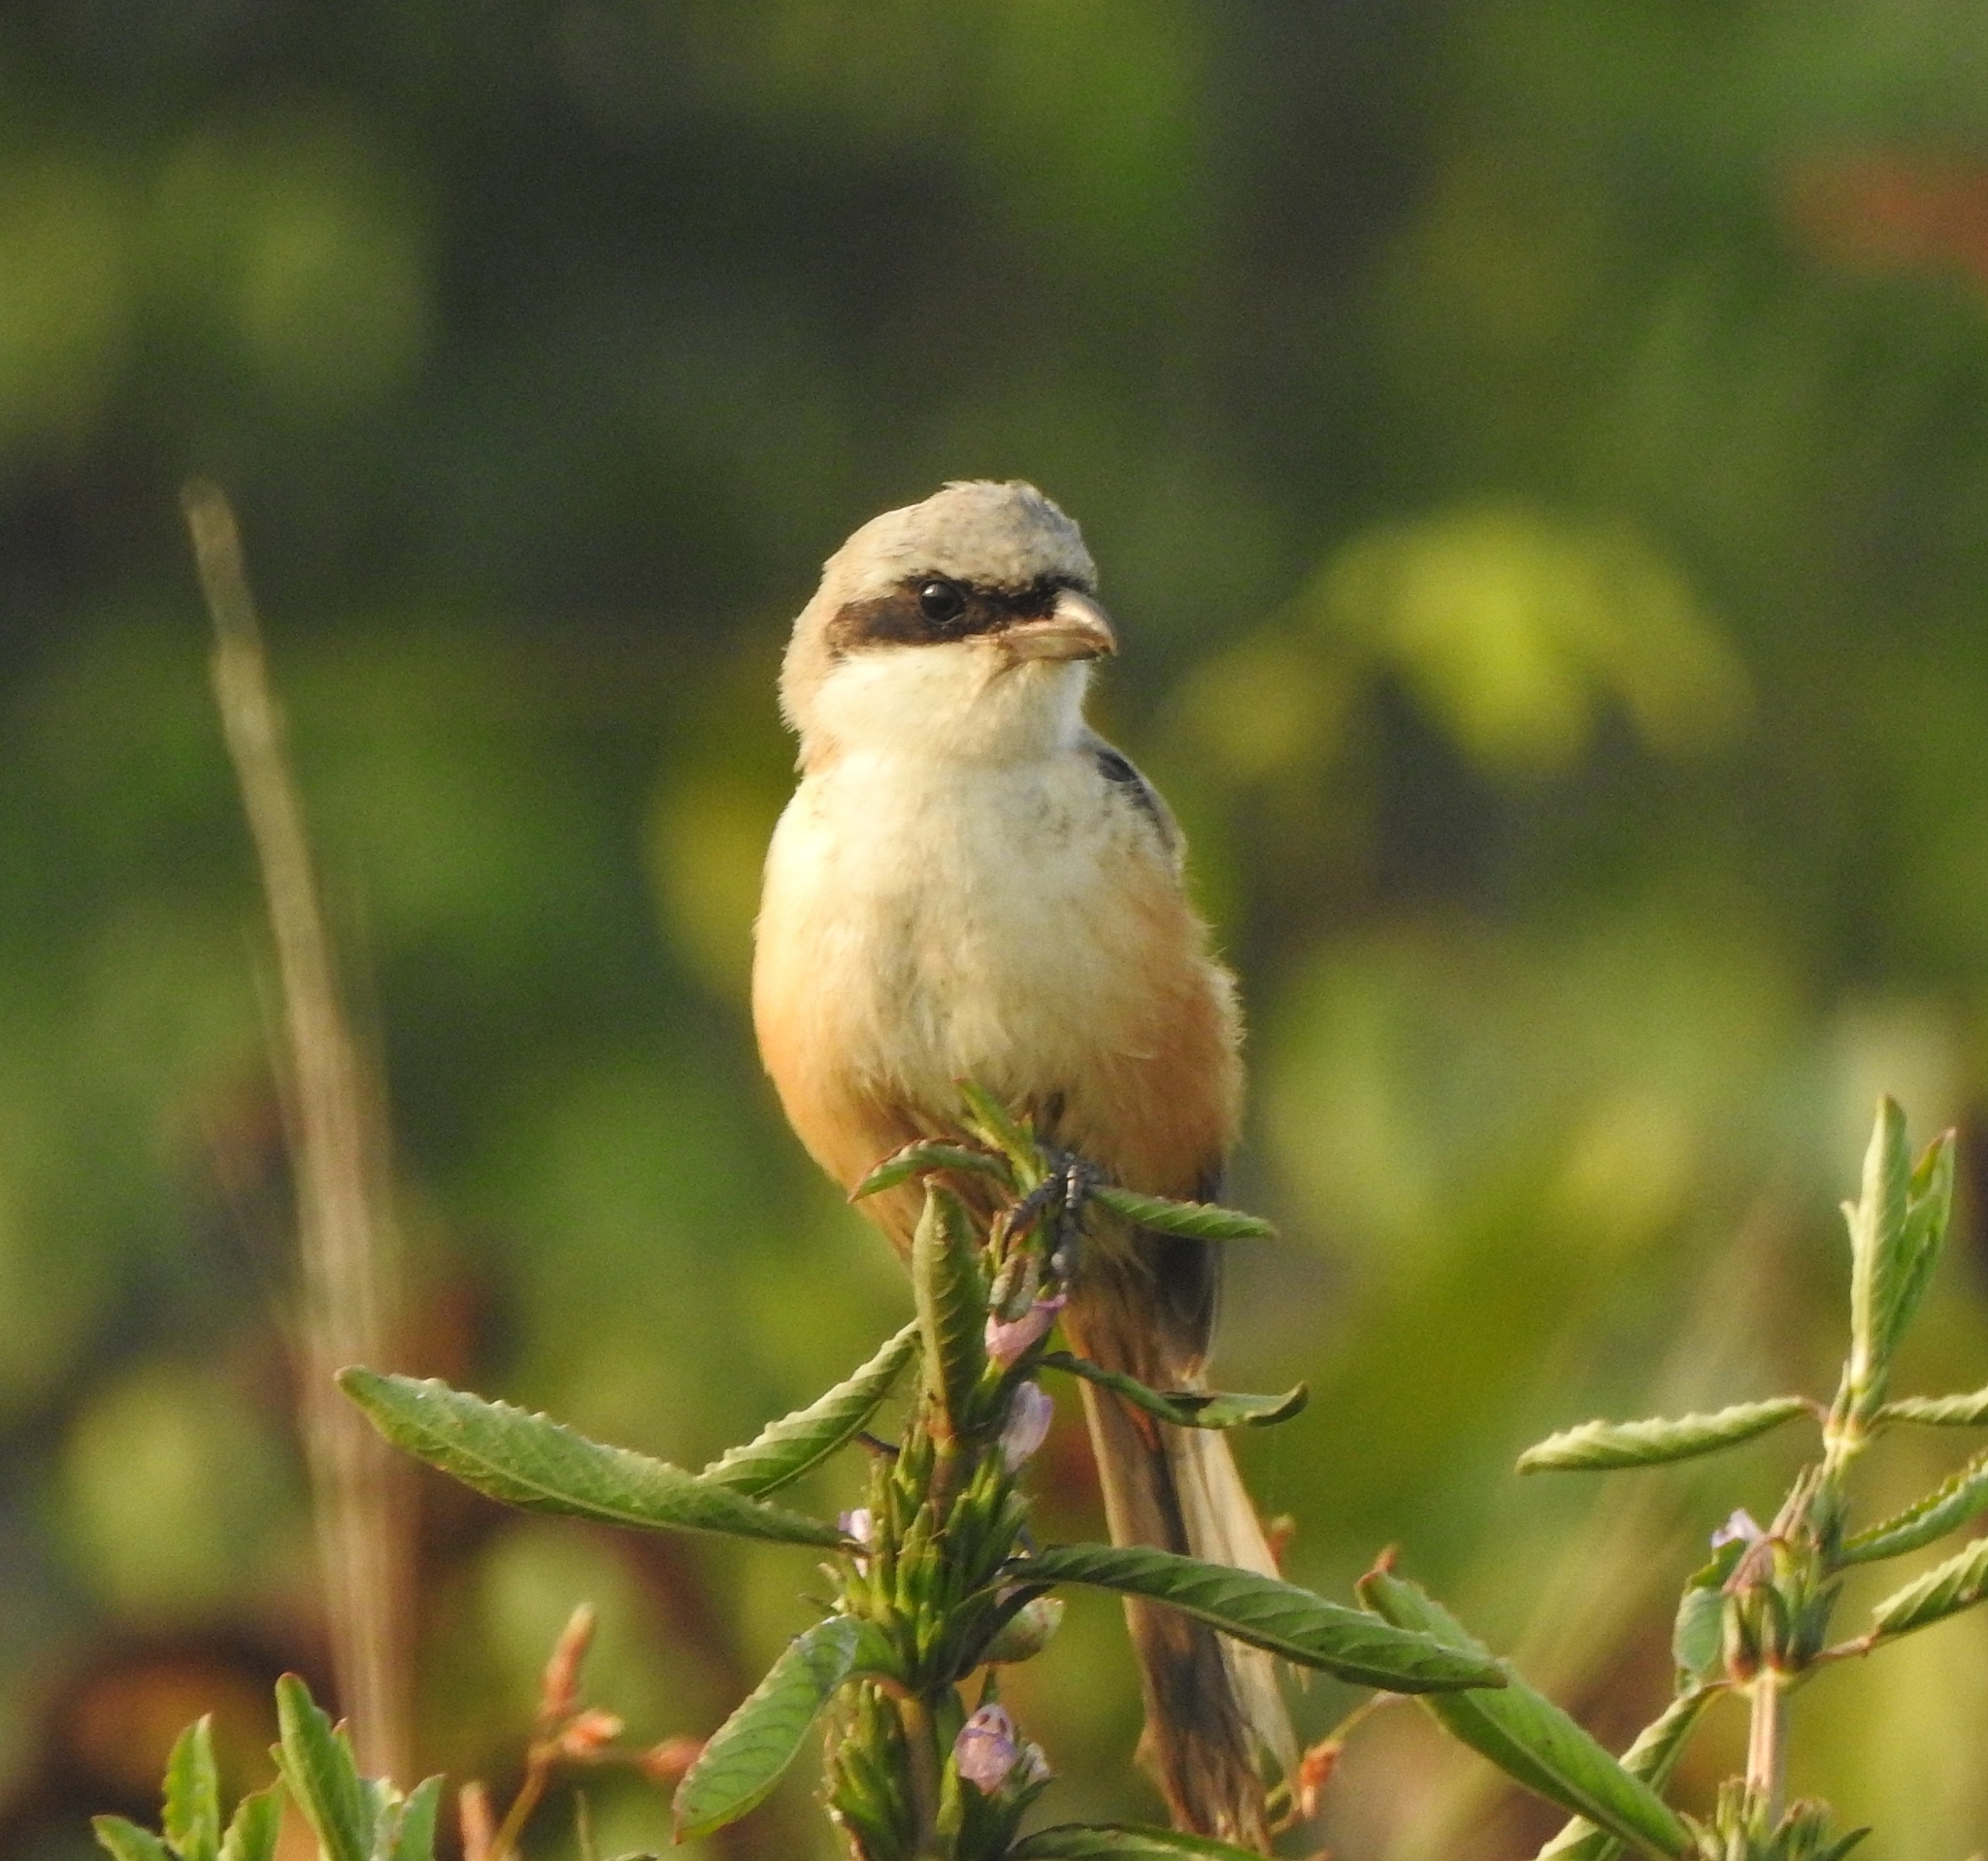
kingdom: Animalia
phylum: Chordata
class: Aves
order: Passeriformes
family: Laniidae
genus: Lanius
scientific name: Lanius schach
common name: Long-tailed shrike
